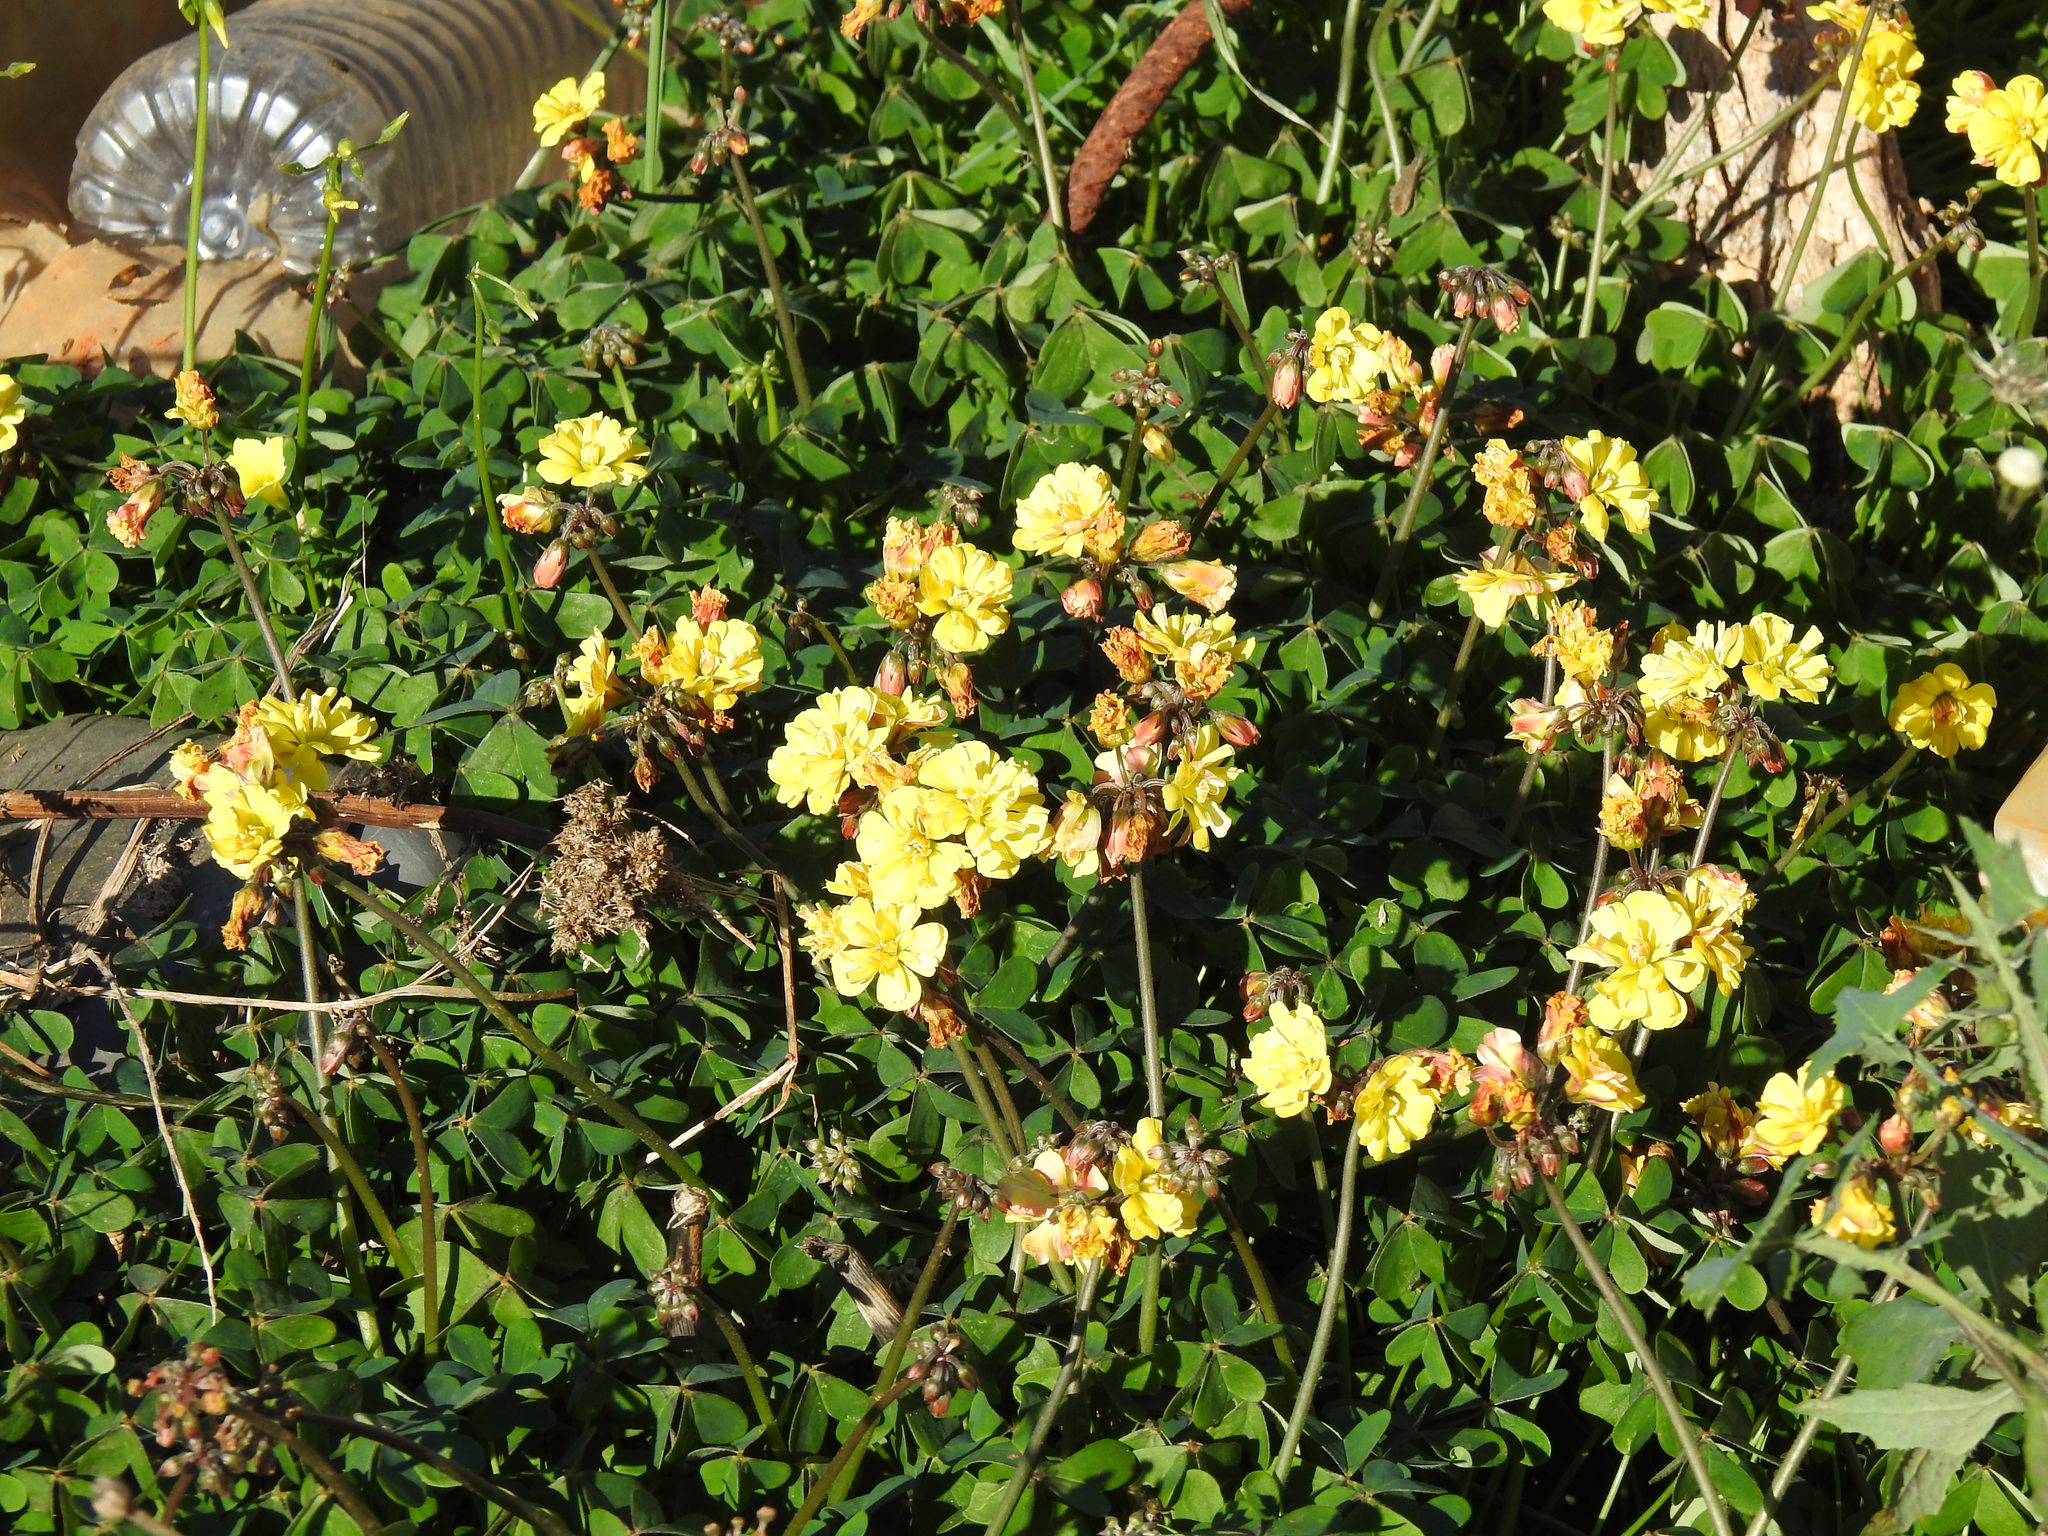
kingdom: Plantae
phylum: Tracheophyta
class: Magnoliopsida
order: Oxalidales
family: Oxalidaceae
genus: Oxalis
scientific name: Oxalis pes-caprae
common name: Bermuda-buttercup
